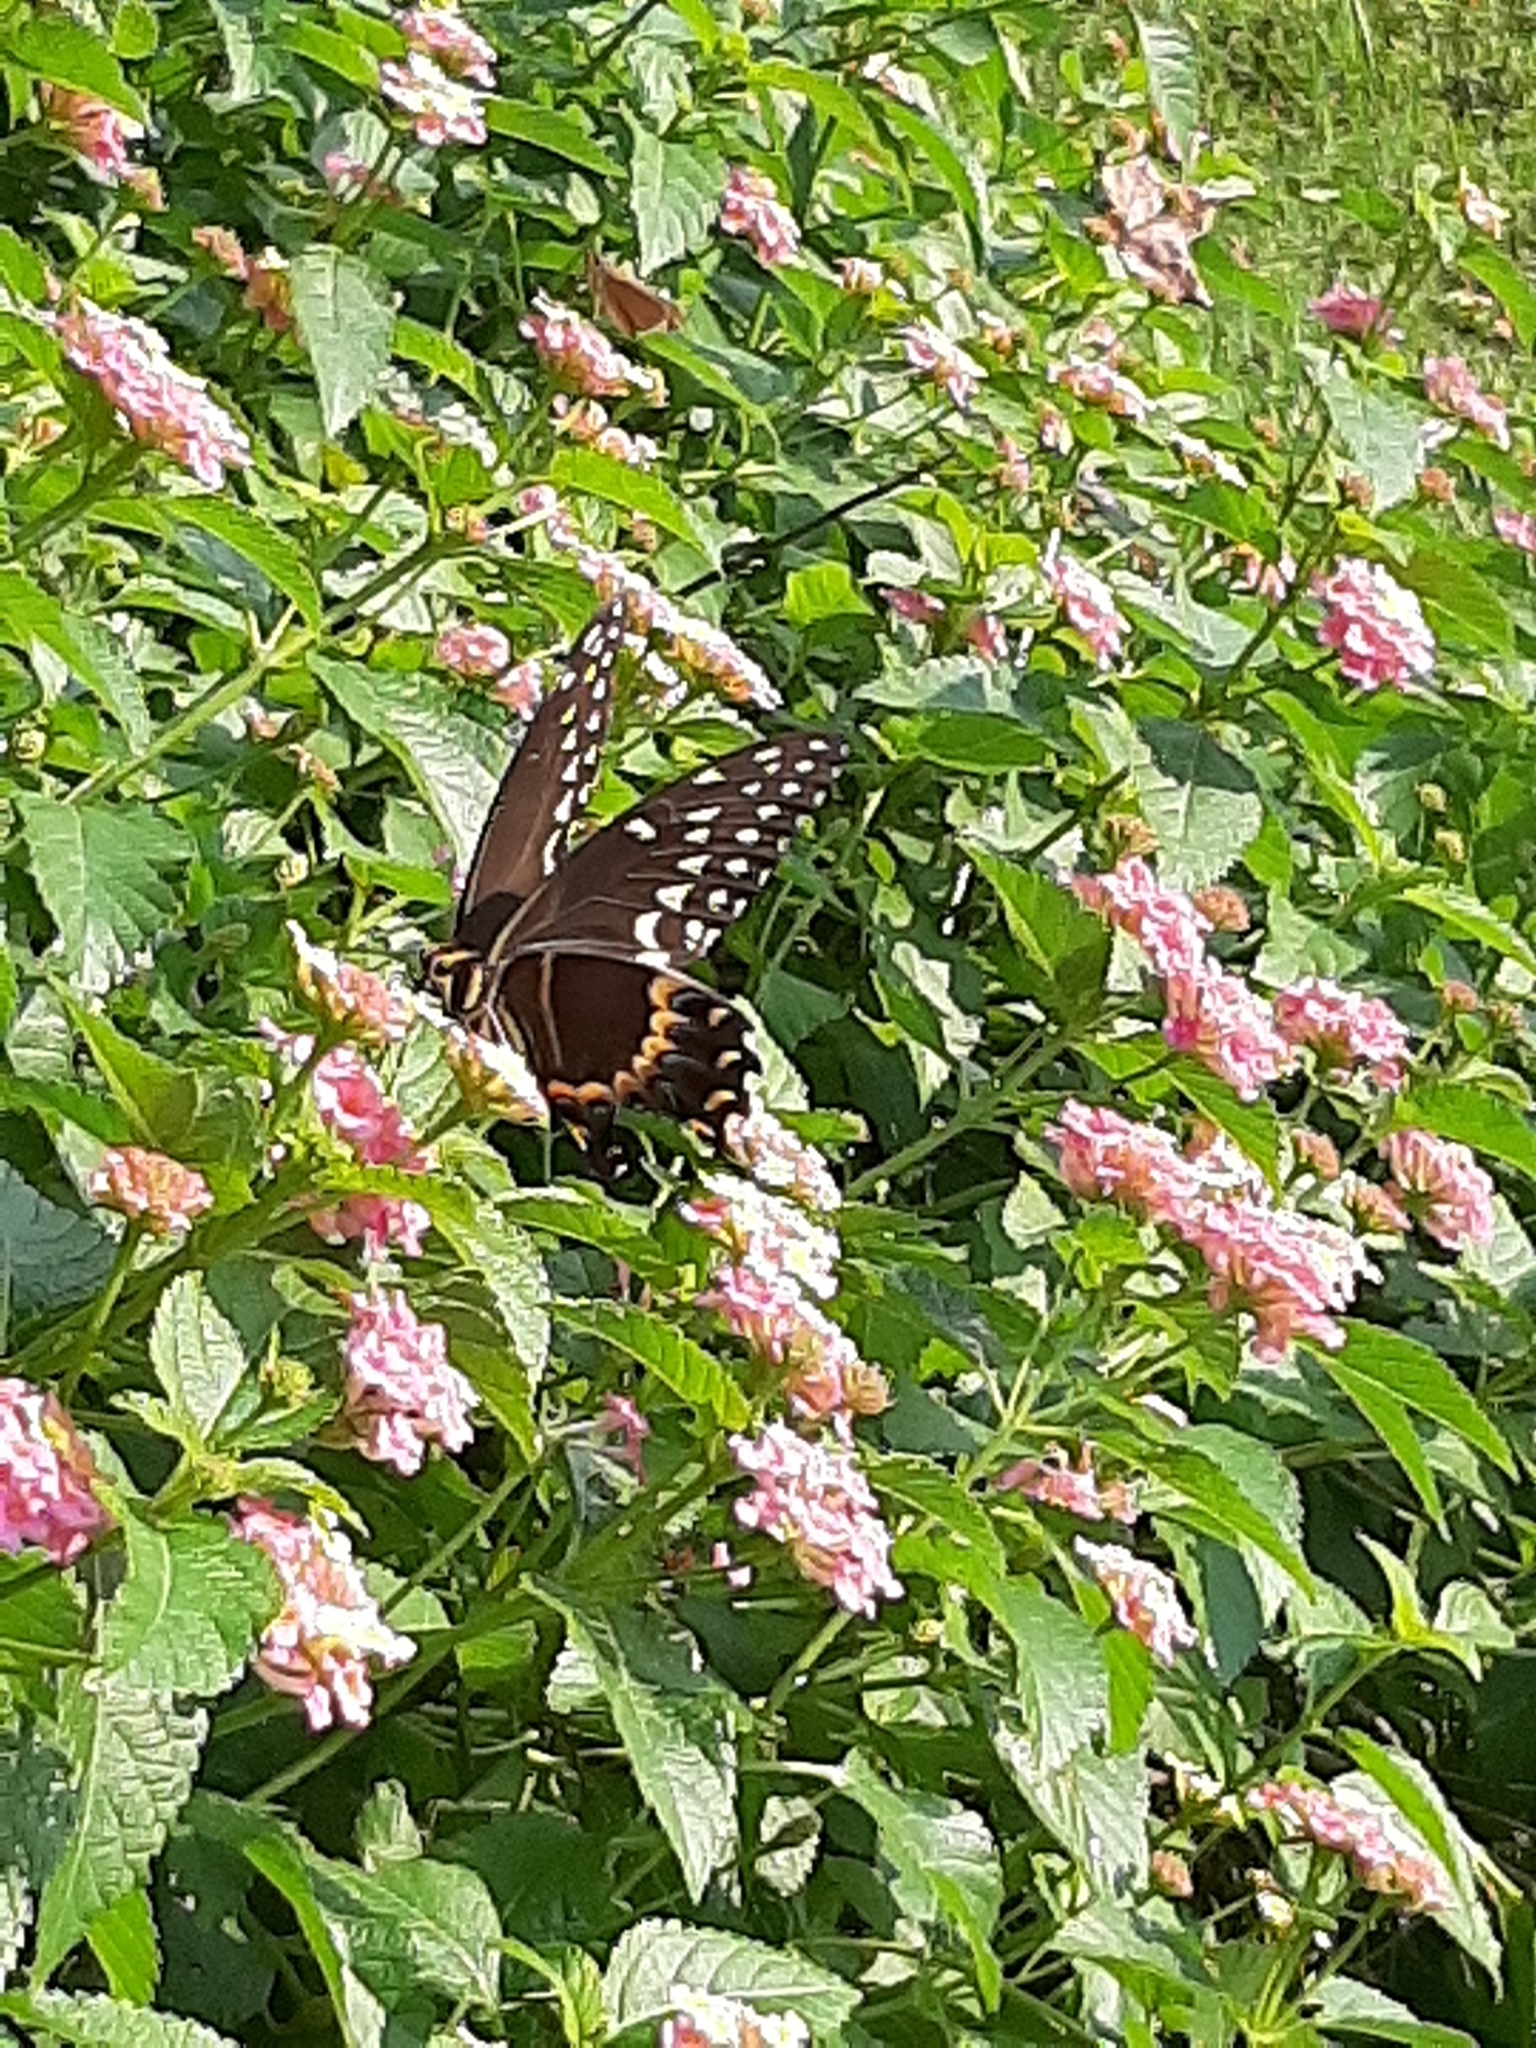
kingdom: Animalia
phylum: Arthropoda
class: Insecta
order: Lepidoptera
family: Papilionidae
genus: Papilio
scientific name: Papilio palamedes
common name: Palamedes swallowtail
